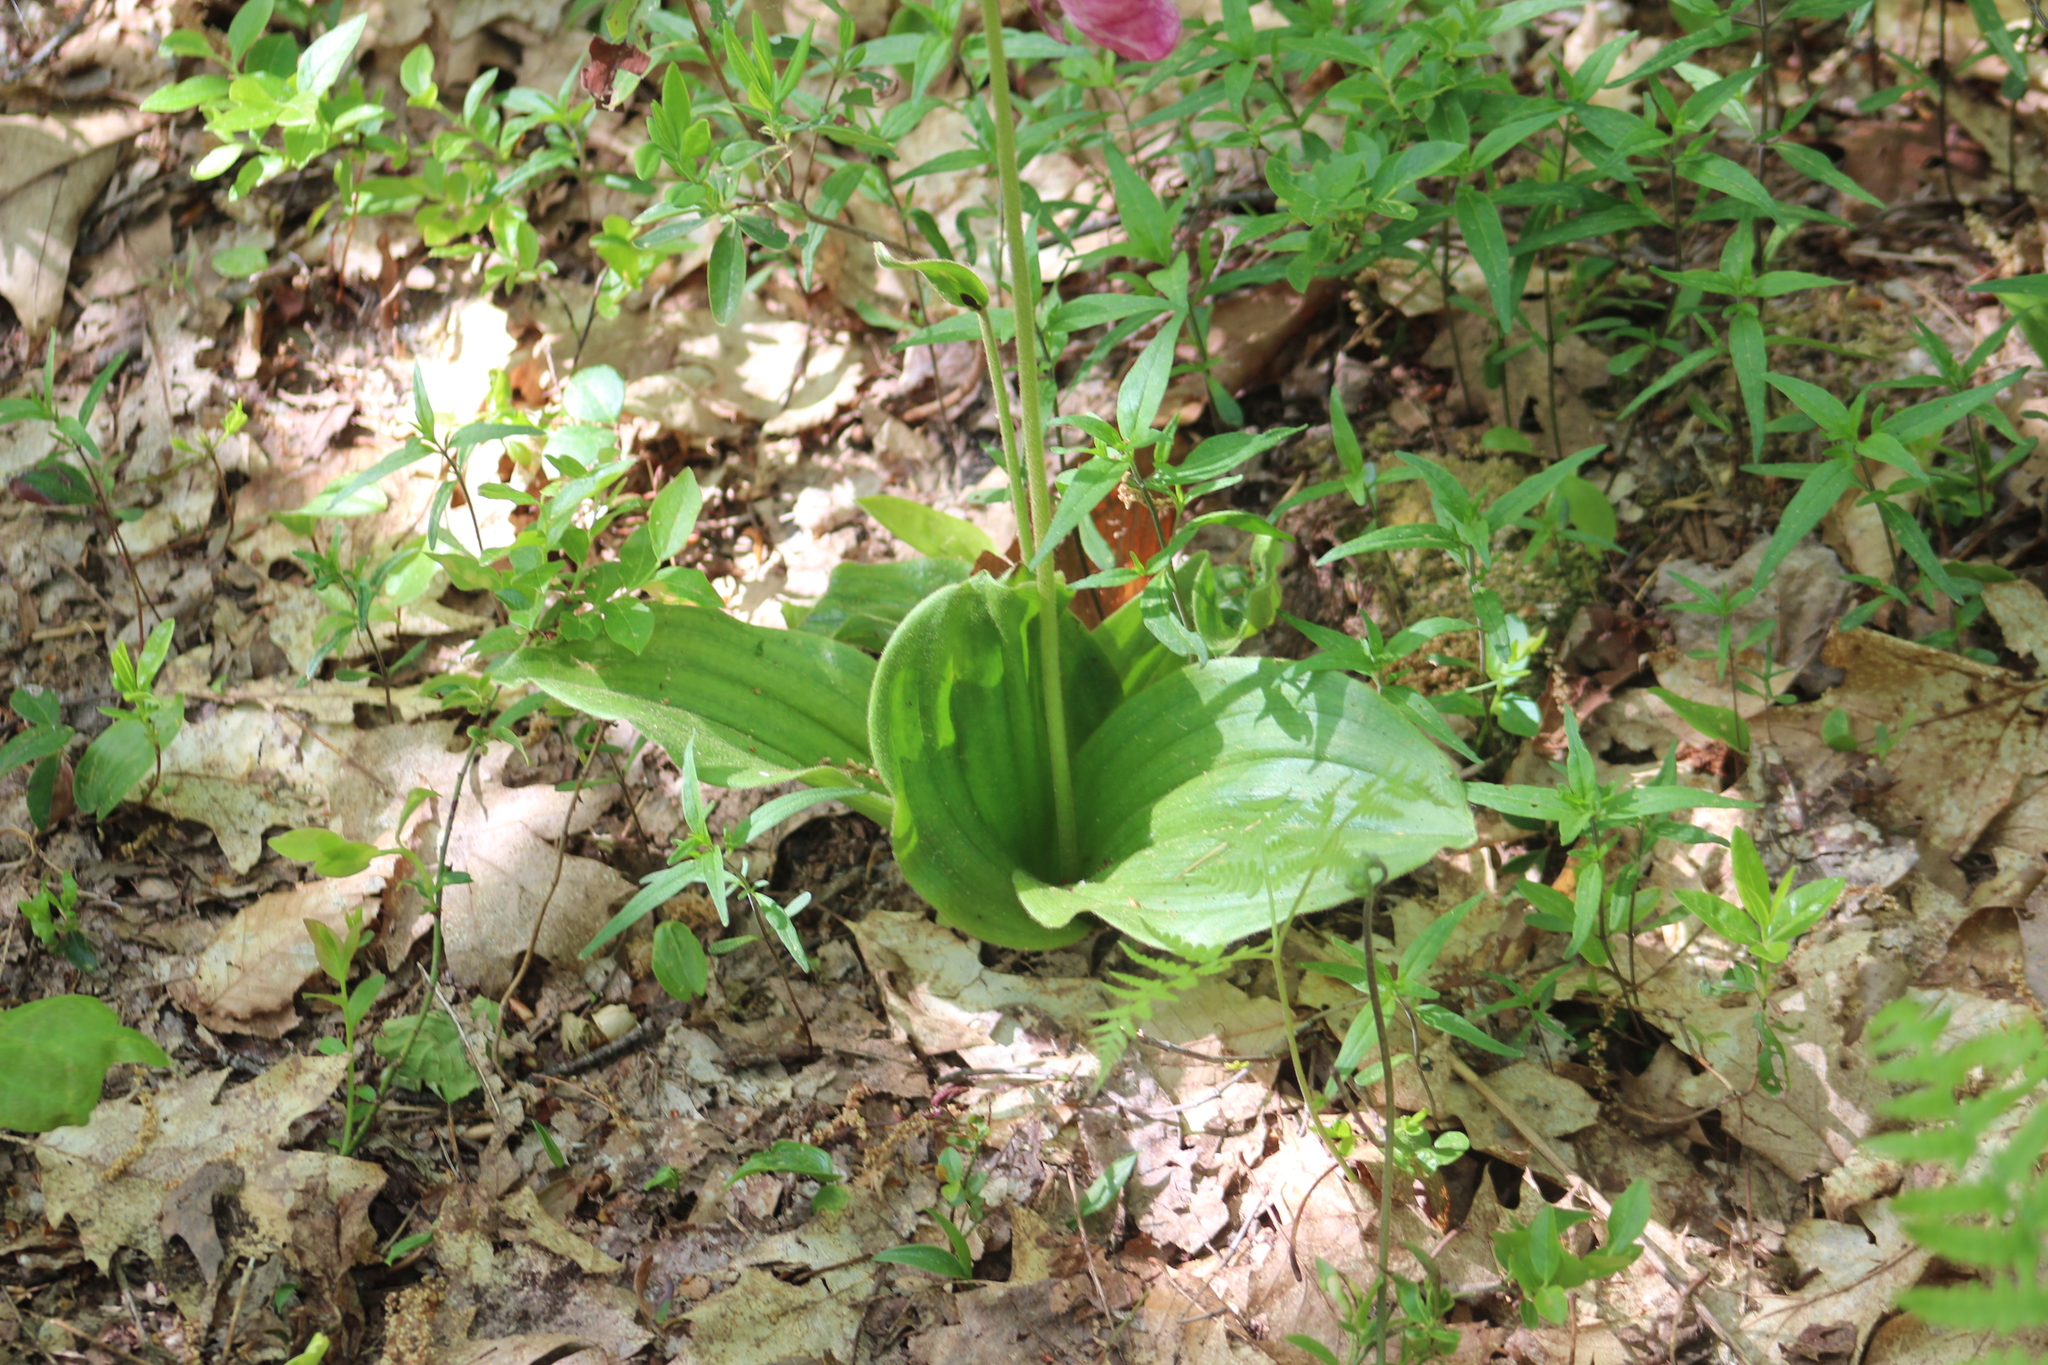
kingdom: Plantae
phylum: Tracheophyta
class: Liliopsida
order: Asparagales
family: Orchidaceae
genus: Cypripedium
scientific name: Cypripedium acaule
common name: Pink lady's-slipper
